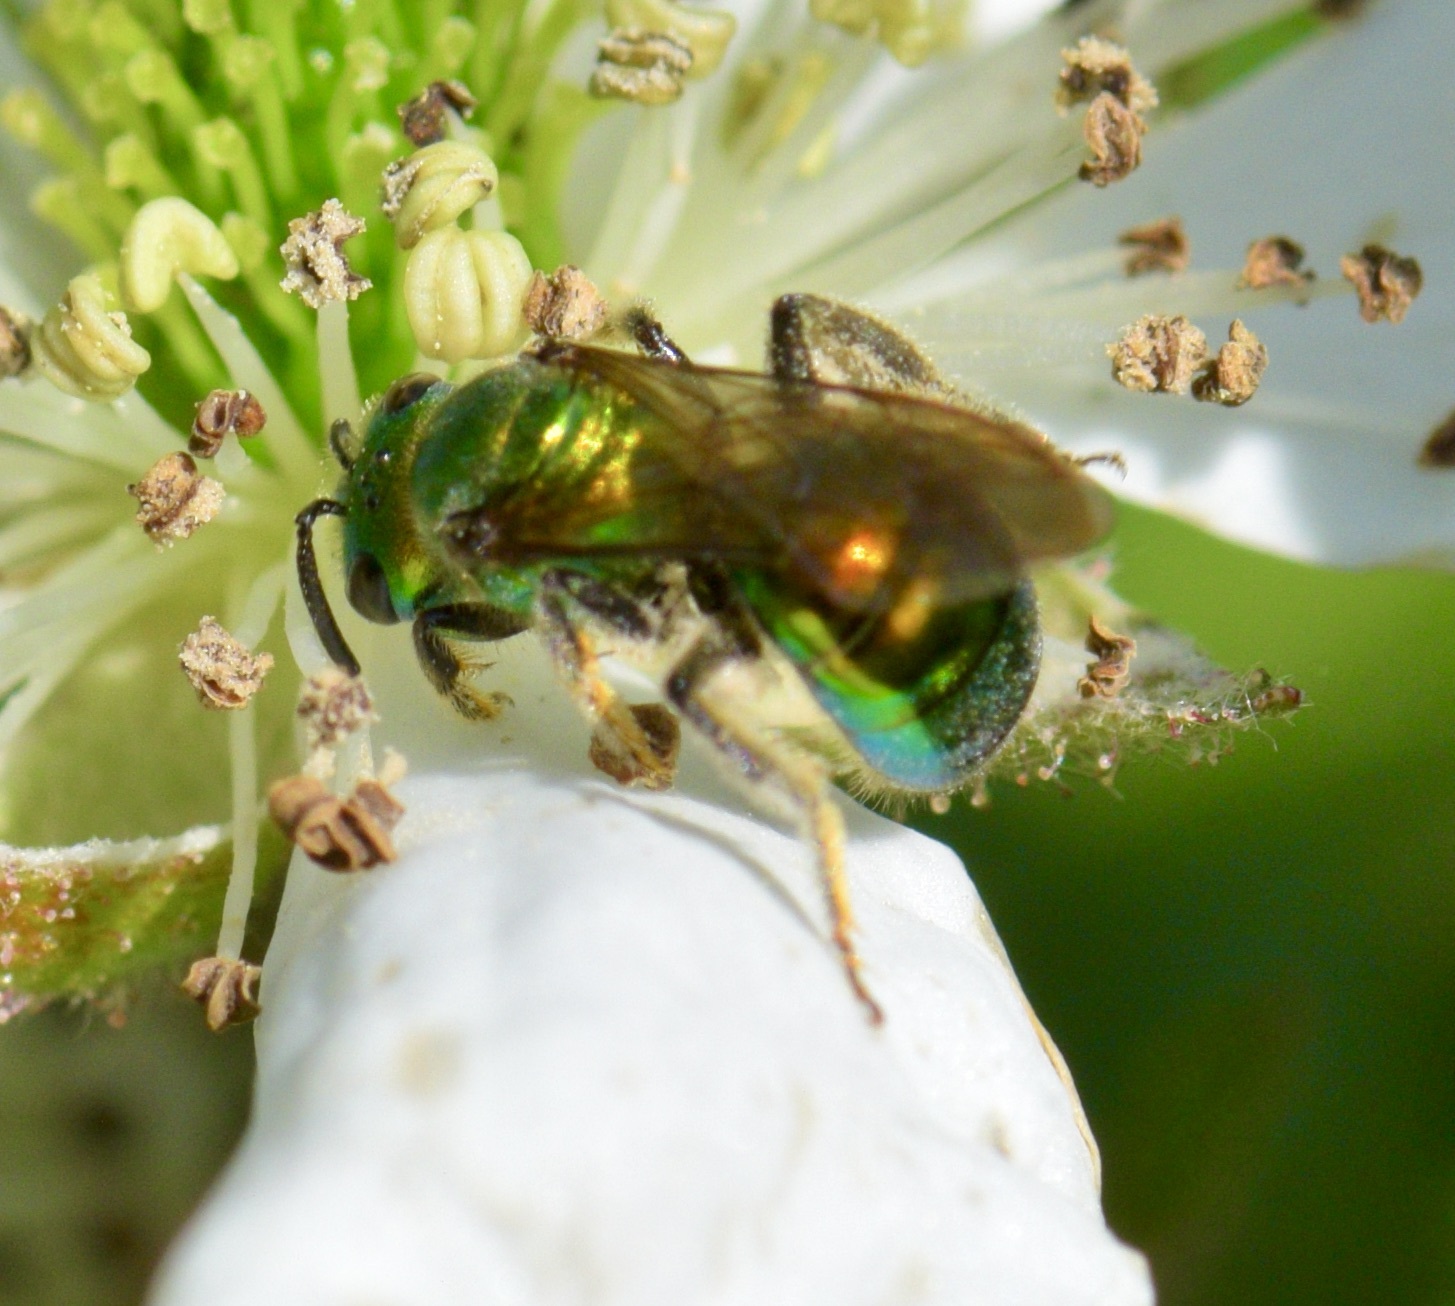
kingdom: Animalia
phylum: Arthropoda
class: Insecta
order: Hymenoptera
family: Halictidae
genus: Augochlora
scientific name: Augochlora pura
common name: Pure green sweat bee
